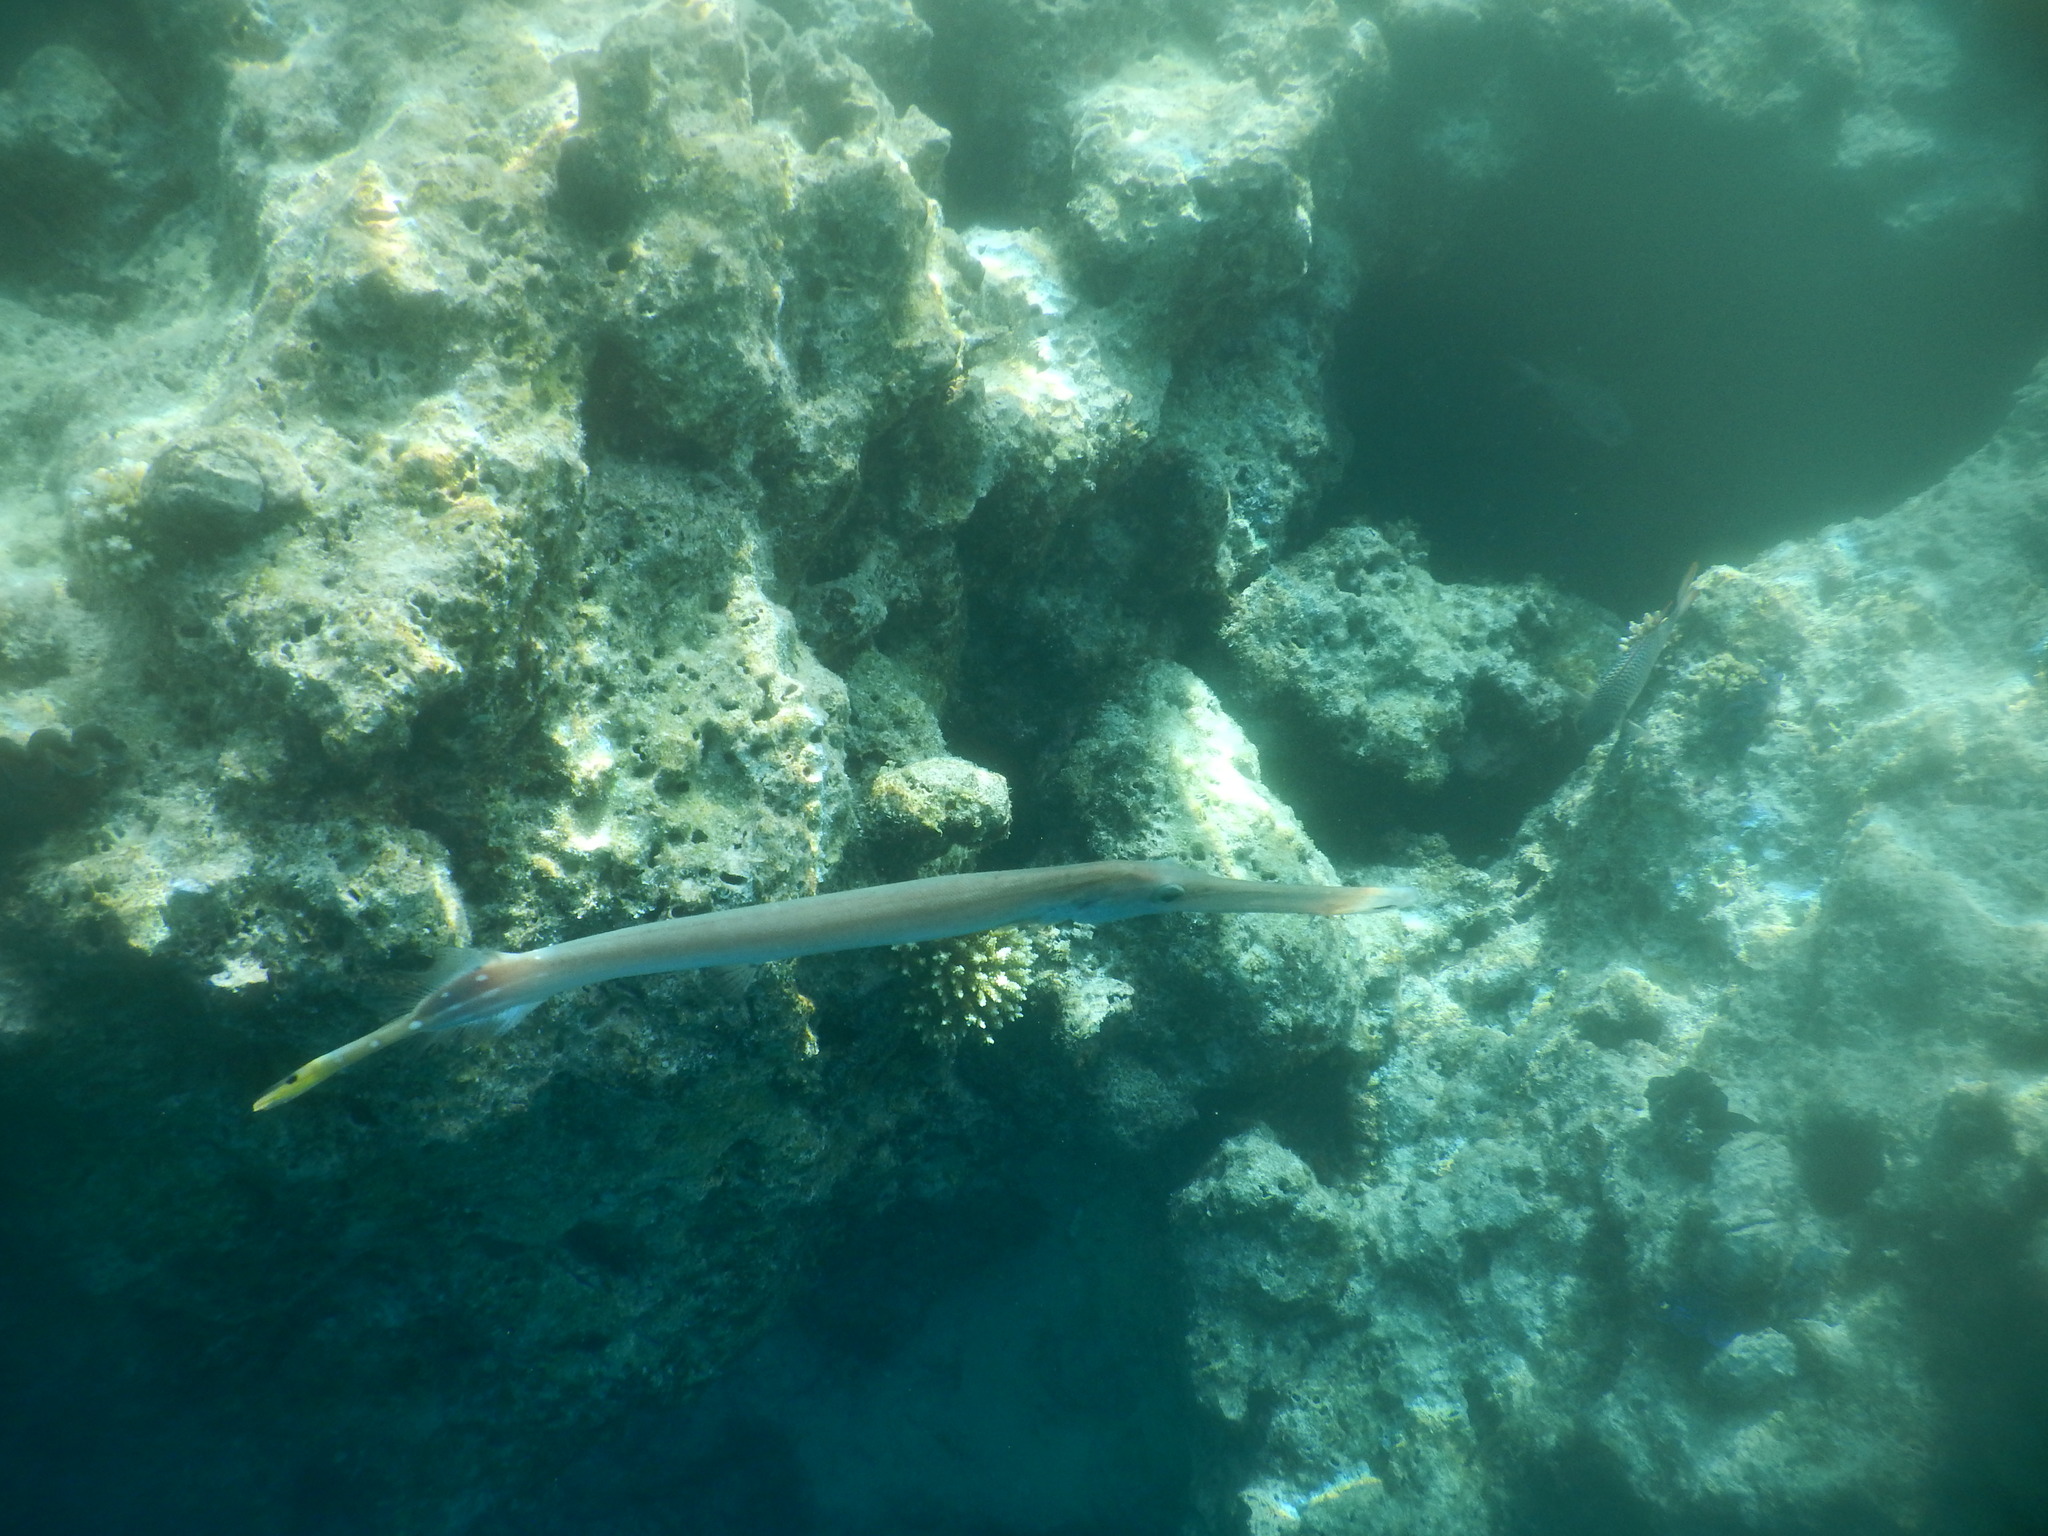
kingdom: Animalia
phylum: Chordata
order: Syngnathiformes
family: Aulostomidae
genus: Aulostomus
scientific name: Aulostomus chinensis
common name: Chinese trumpetfish
